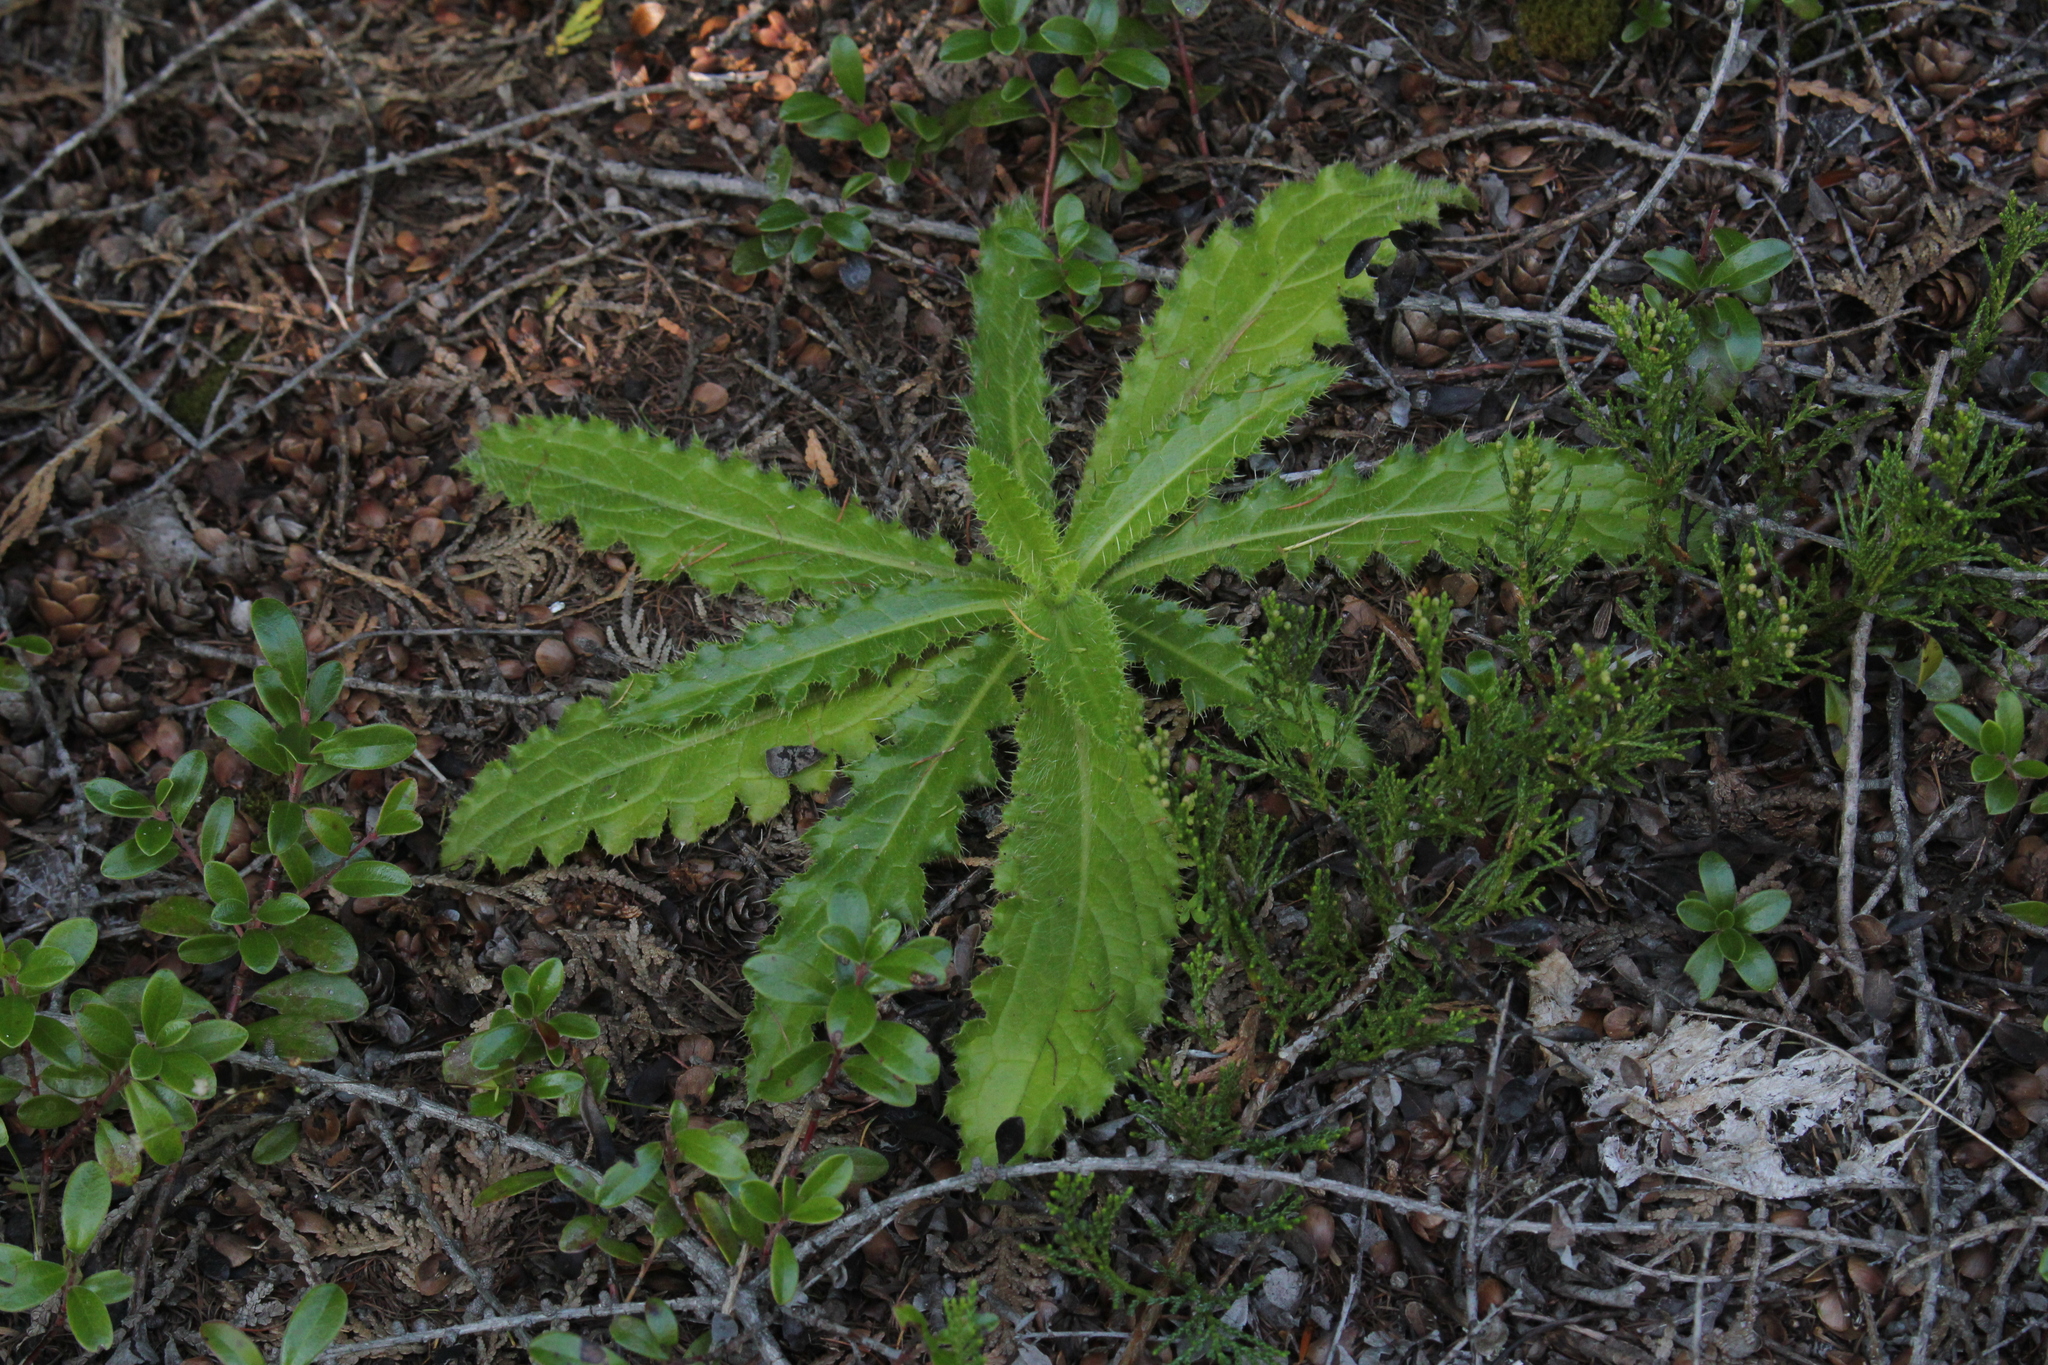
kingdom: Plantae
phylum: Tracheophyta
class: Magnoliopsida
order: Asterales
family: Asteraceae
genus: Cirsium
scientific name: Cirsium pumilum
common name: Pasture thistle
